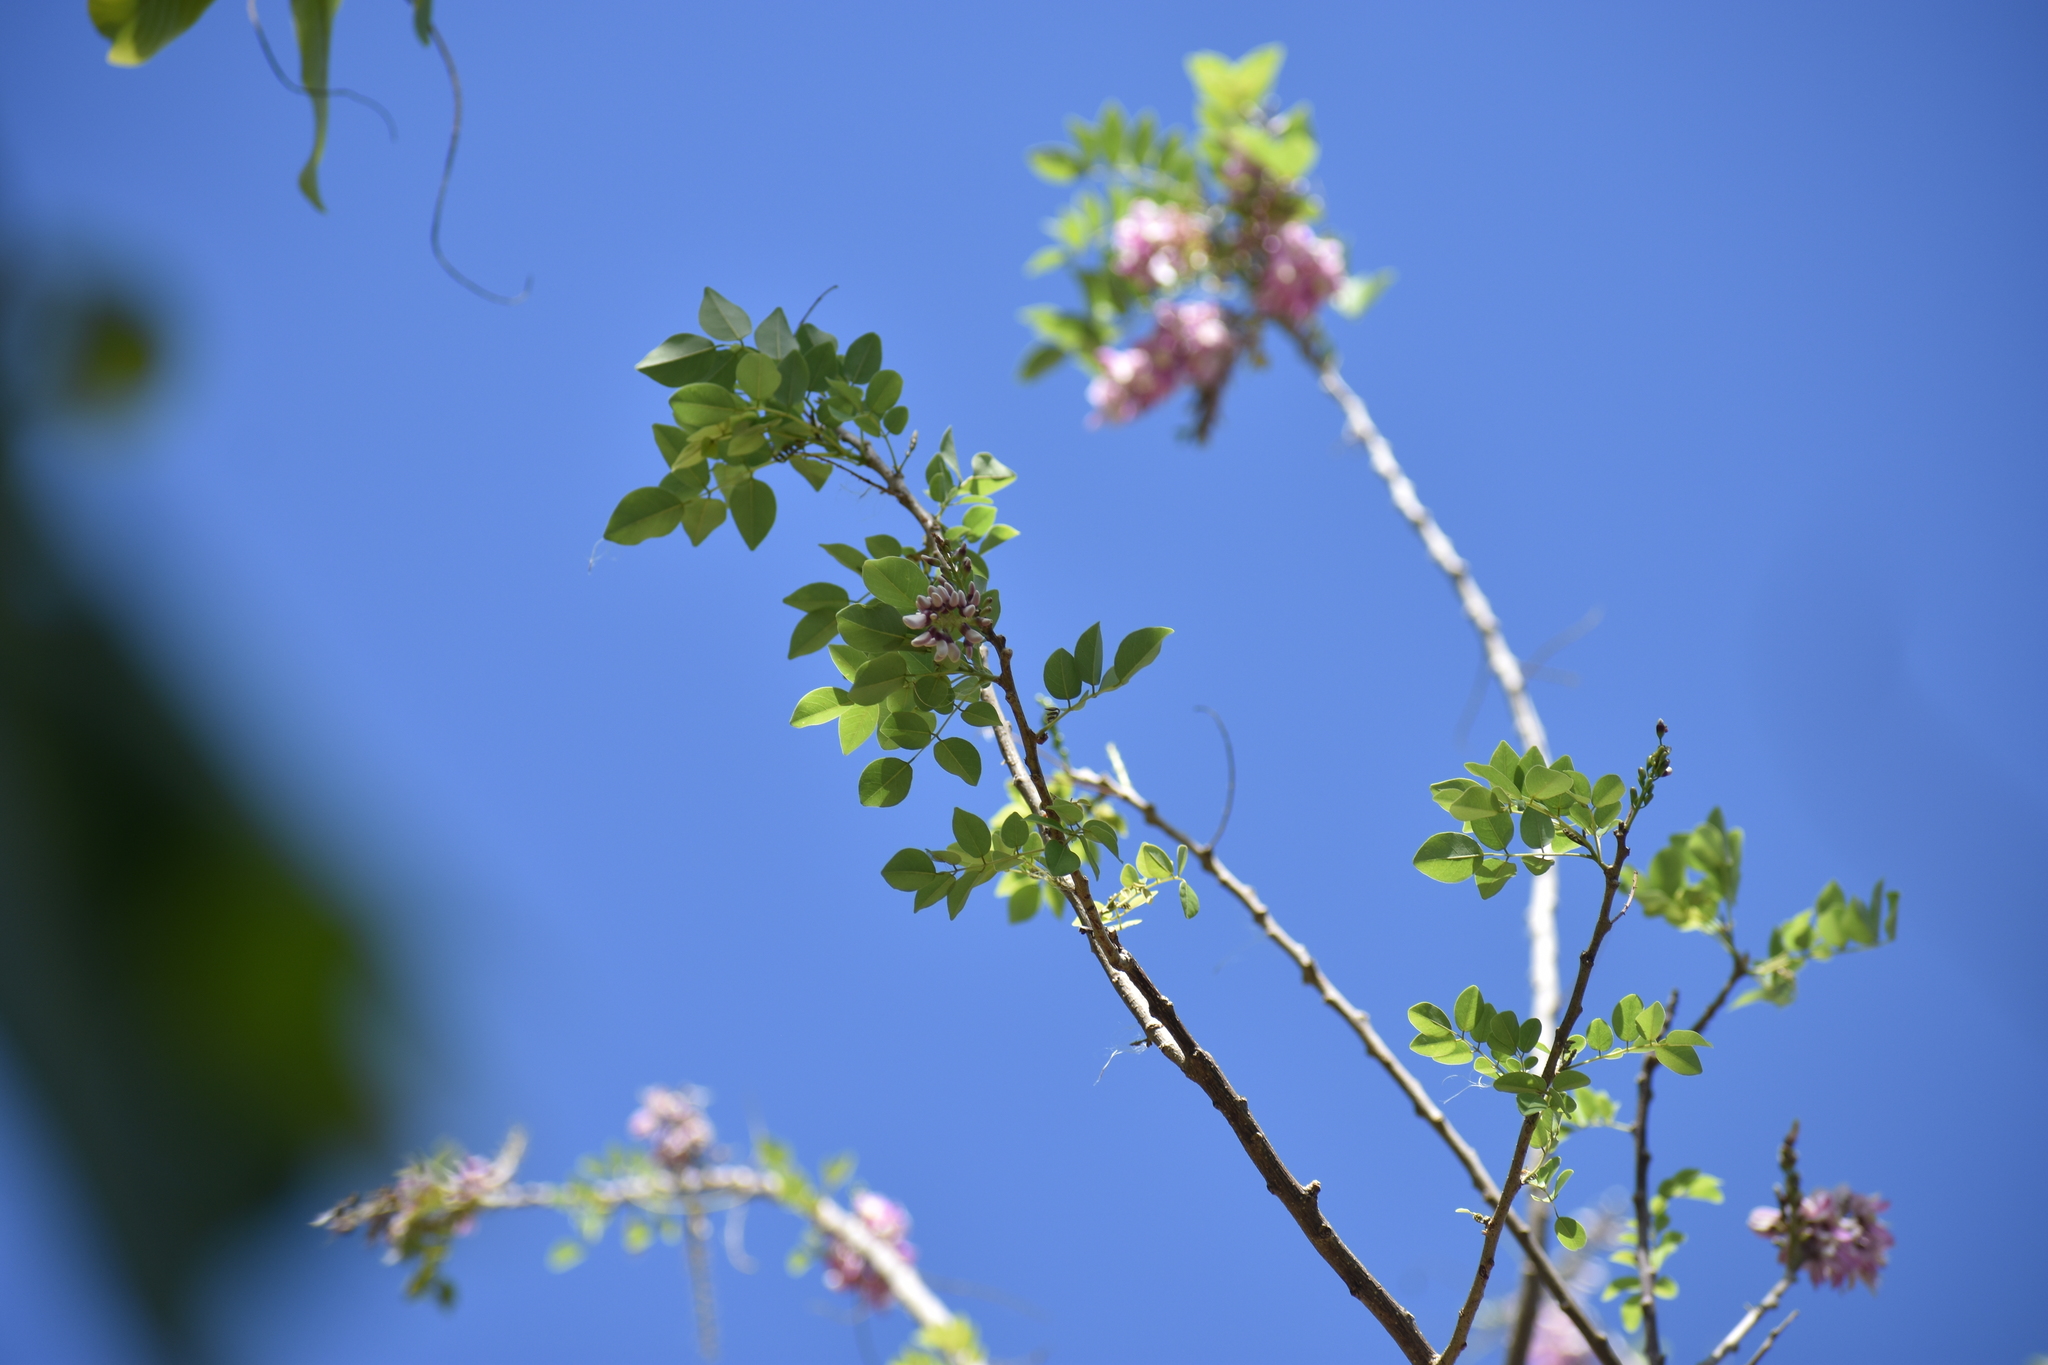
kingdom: Plantae
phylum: Tracheophyta
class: Magnoliopsida
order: Fabales
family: Fabaceae
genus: Gliricidia
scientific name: Gliricidia sepium
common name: Quickstick
